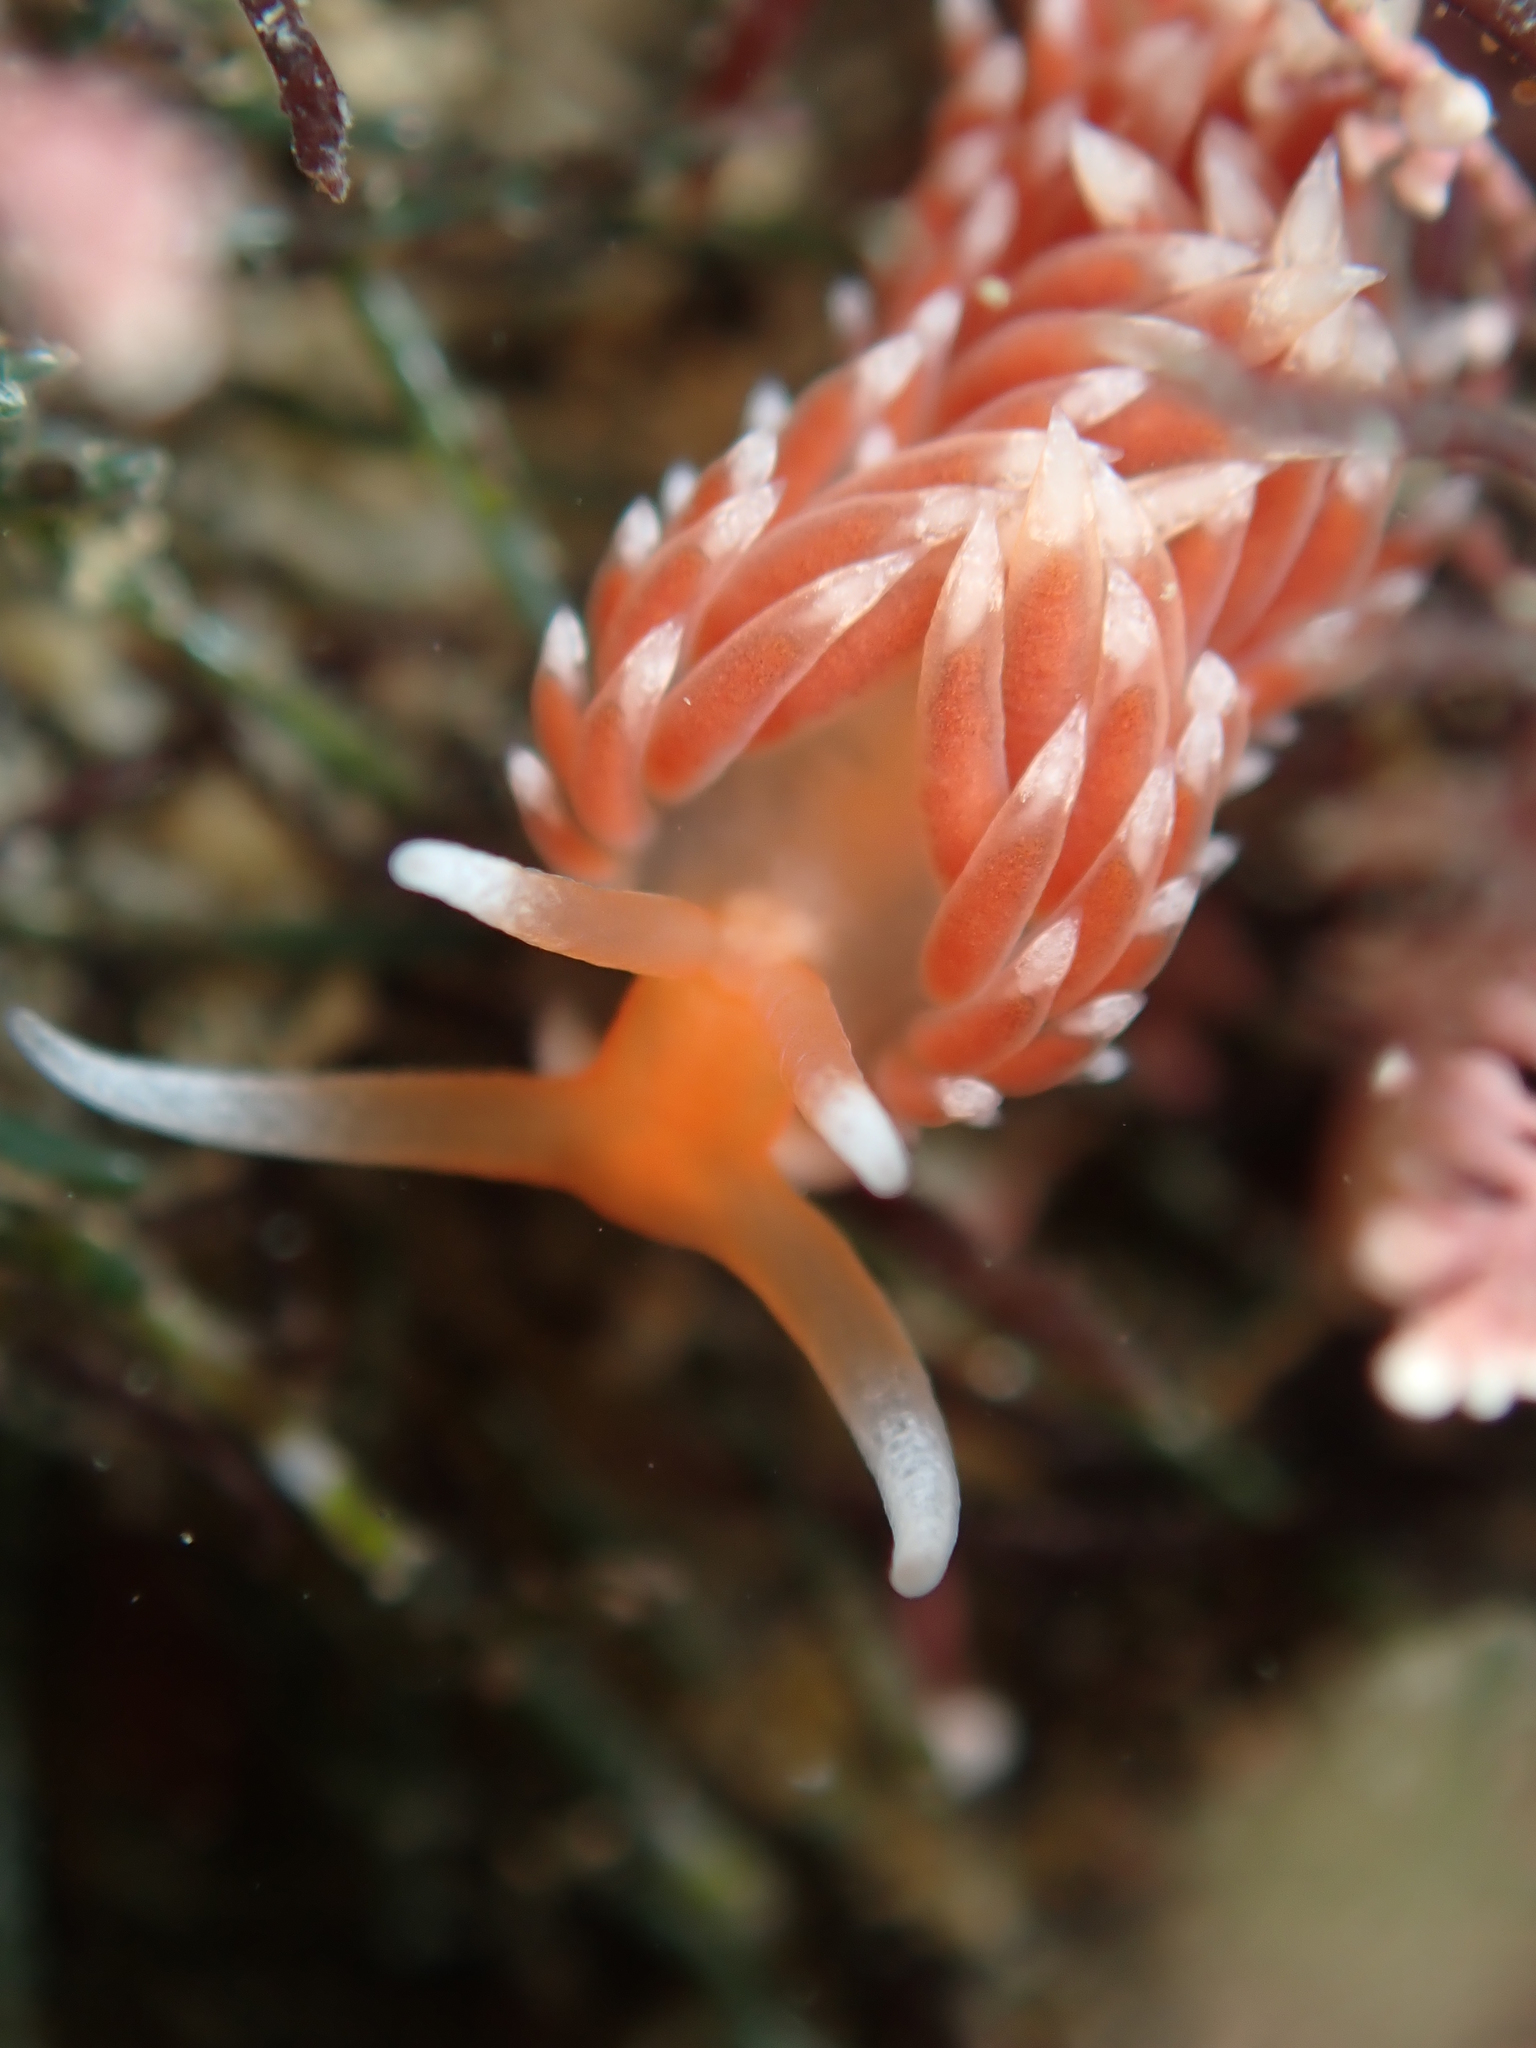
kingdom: Animalia
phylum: Mollusca
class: Gastropoda
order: Nudibranchia
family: Facelinidae
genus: Phidiana
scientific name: Phidiana milleri
